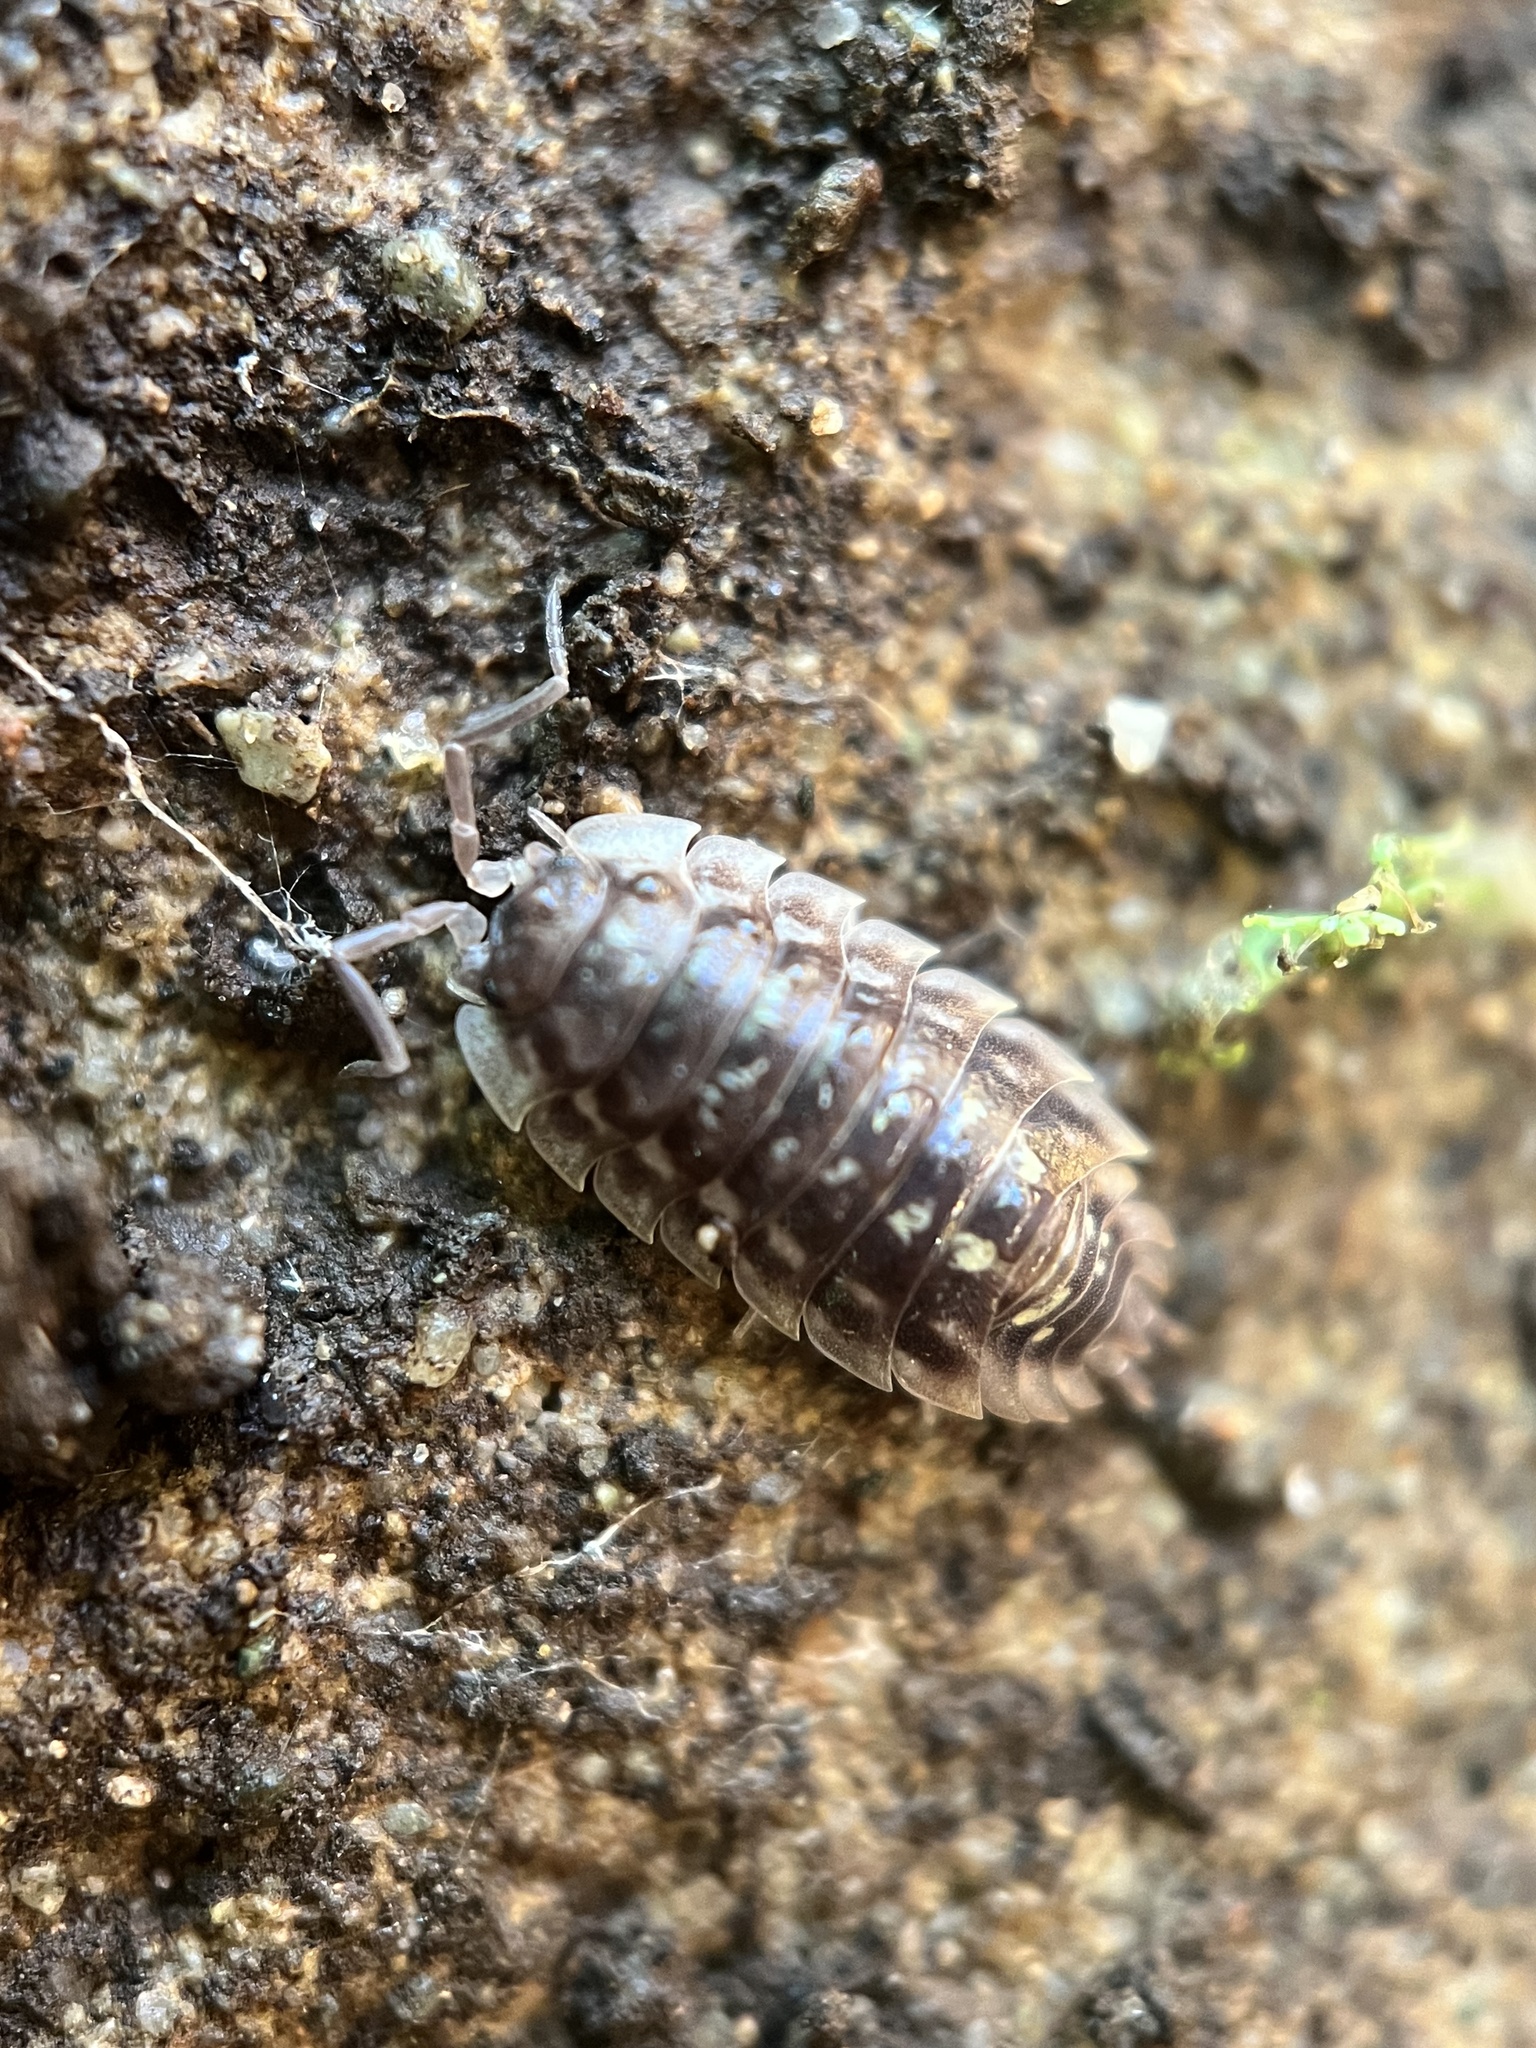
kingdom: Animalia
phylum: Arthropoda
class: Malacostraca
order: Isopoda
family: Oniscidae
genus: Oniscus
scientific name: Oniscus asellus
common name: Common shiny woodlouse
